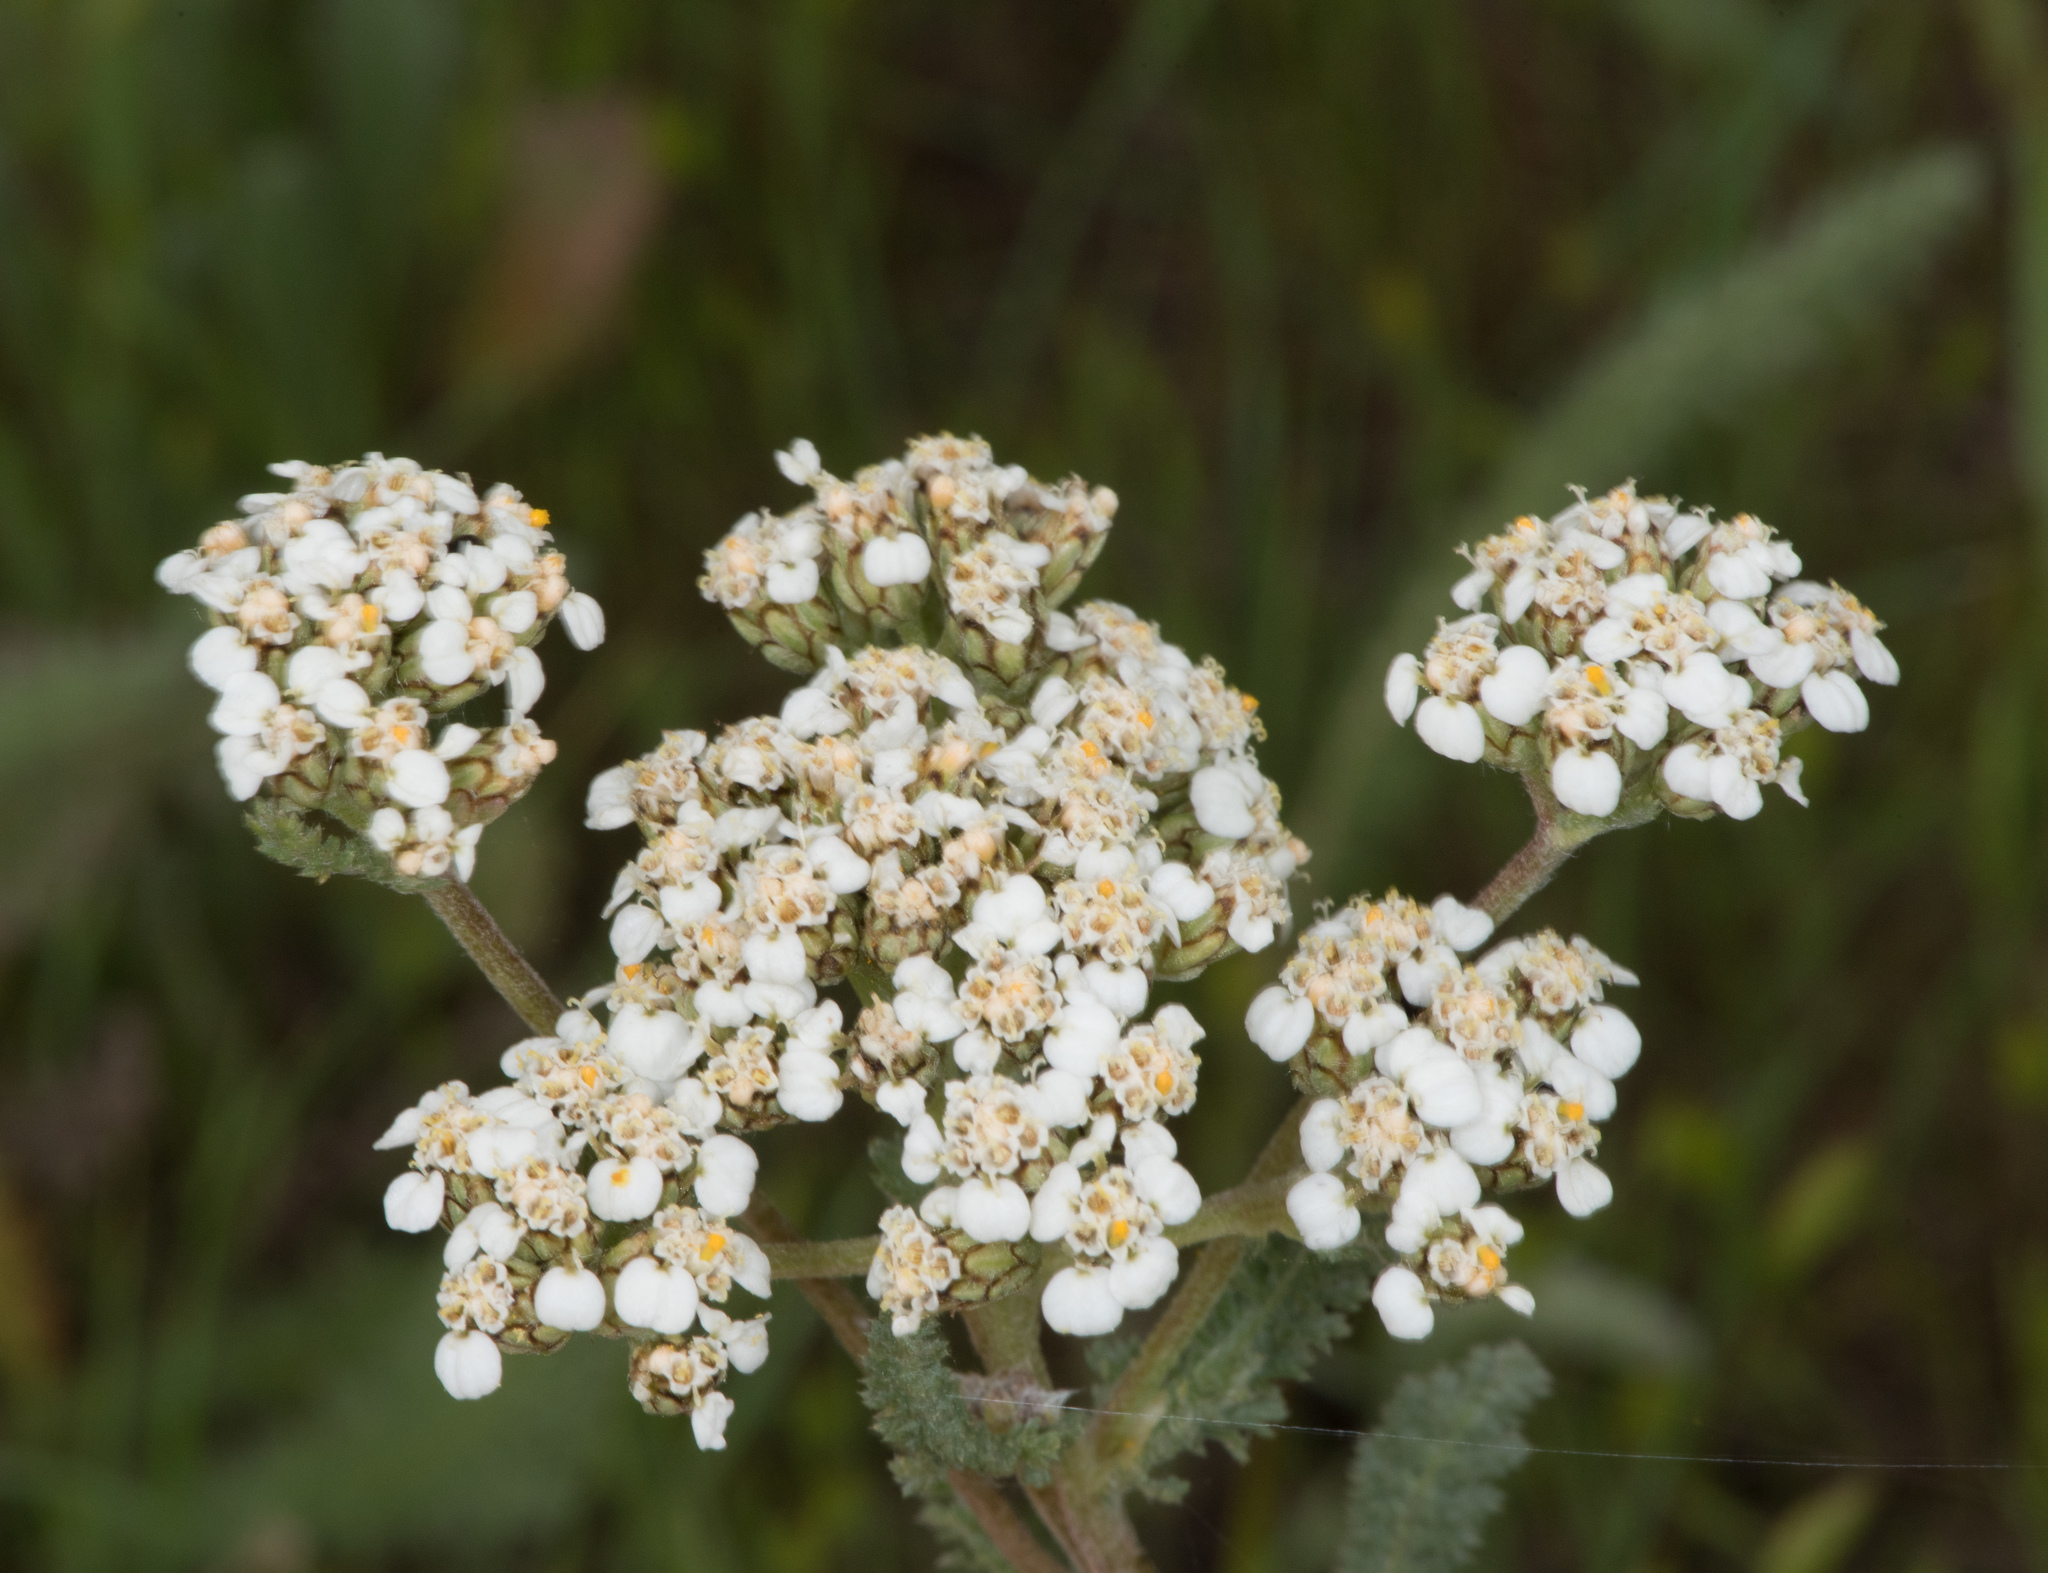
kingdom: Plantae
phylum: Tracheophyta
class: Magnoliopsida
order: Asterales
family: Asteraceae
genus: Achillea
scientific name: Achillea millefolium
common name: Yarrow
